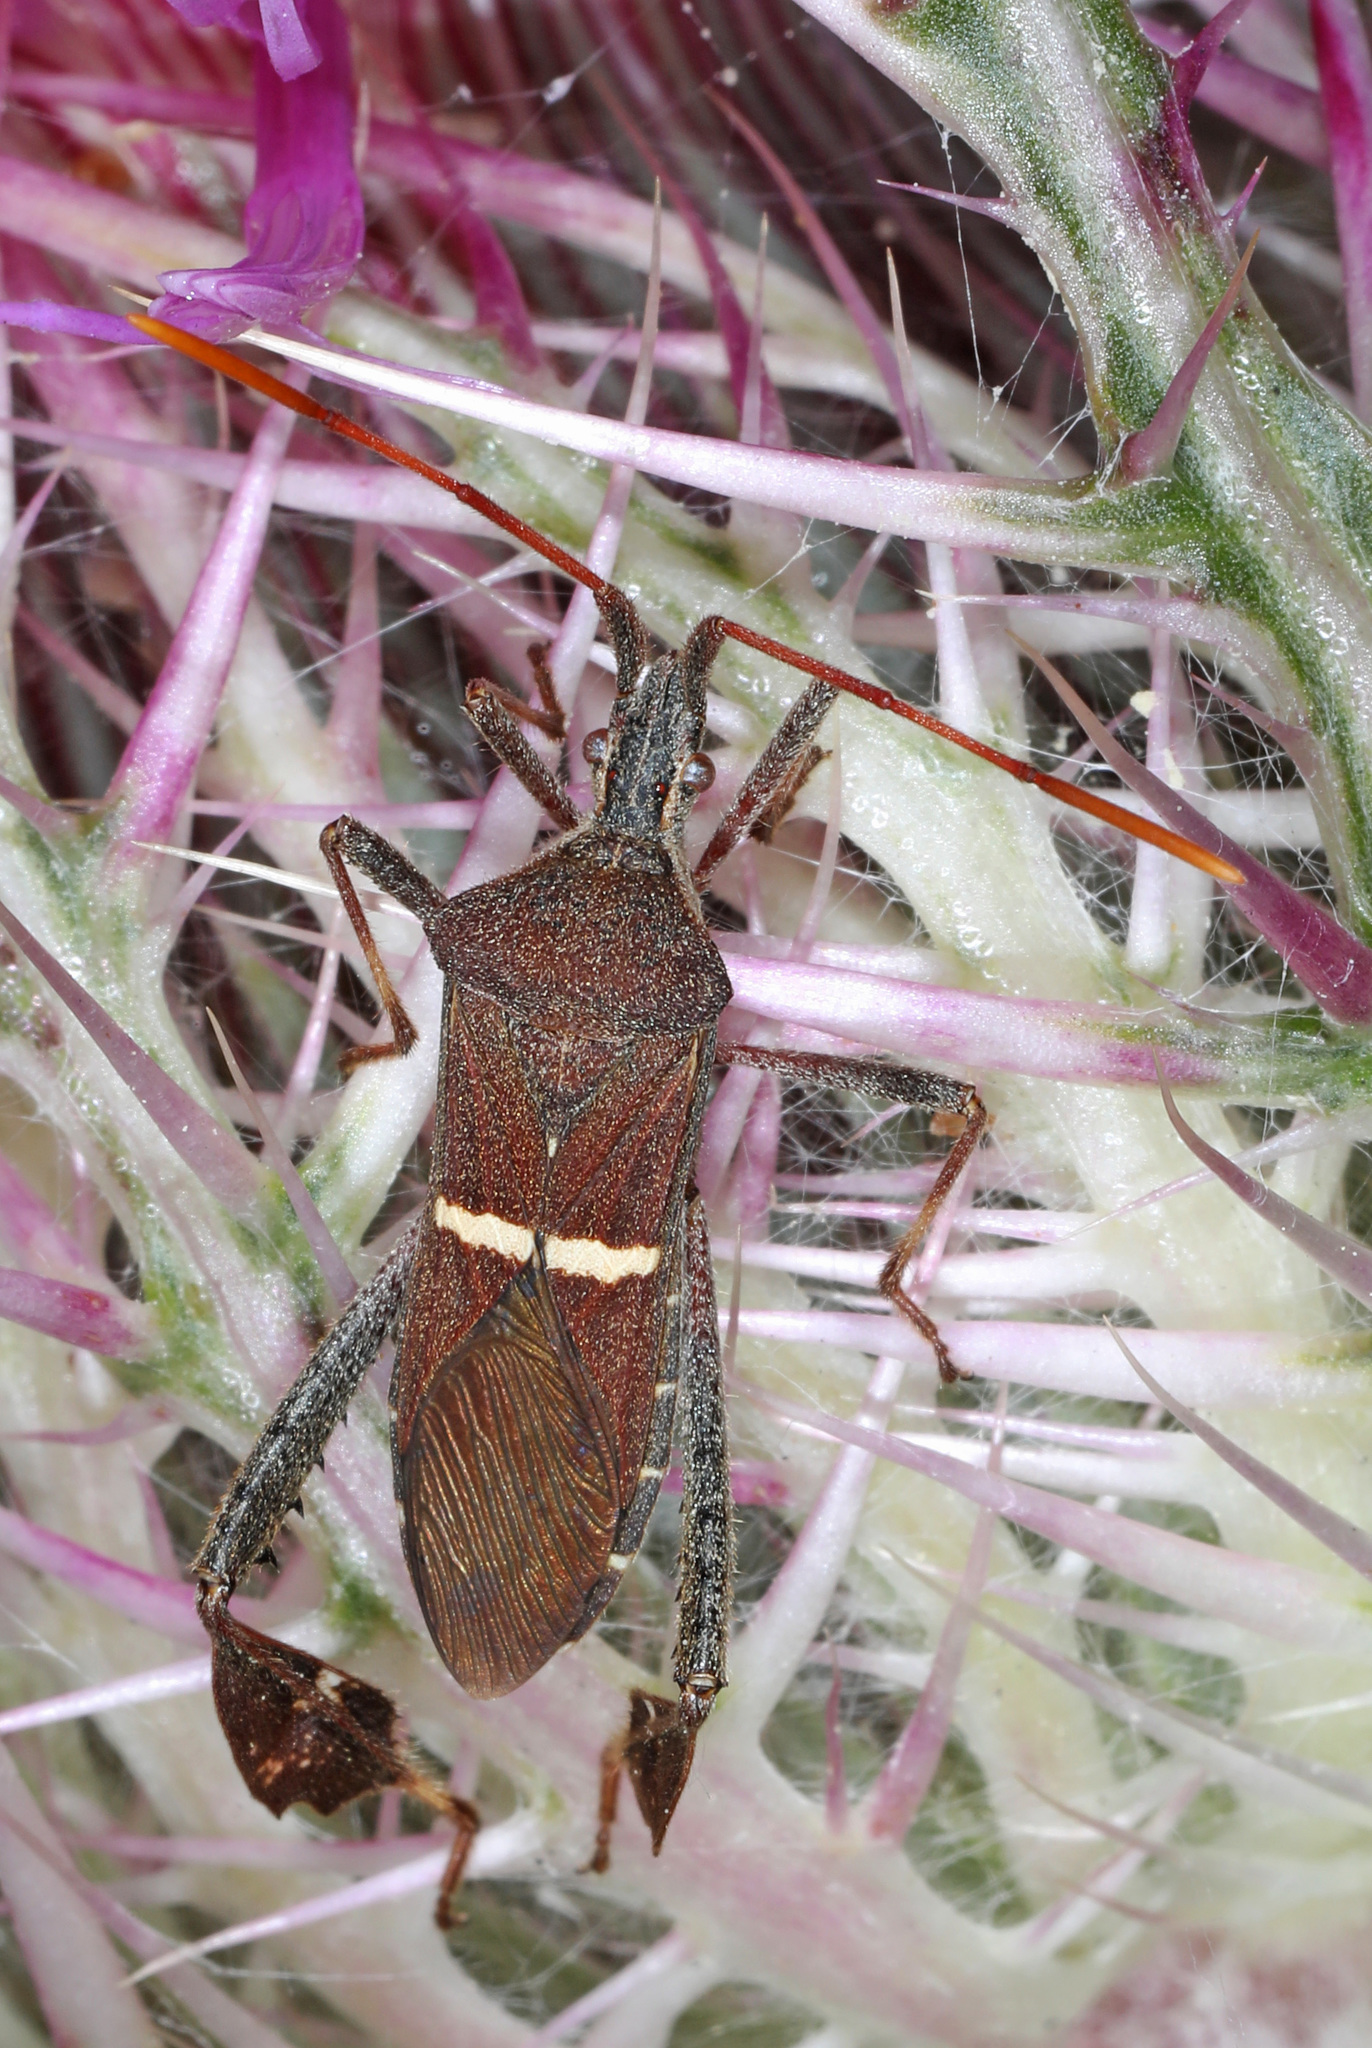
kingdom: Animalia
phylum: Arthropoda
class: Insecta
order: Hemiptera
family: Coreidae
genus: Leptoglossus
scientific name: Leptoglossus phyllopus
